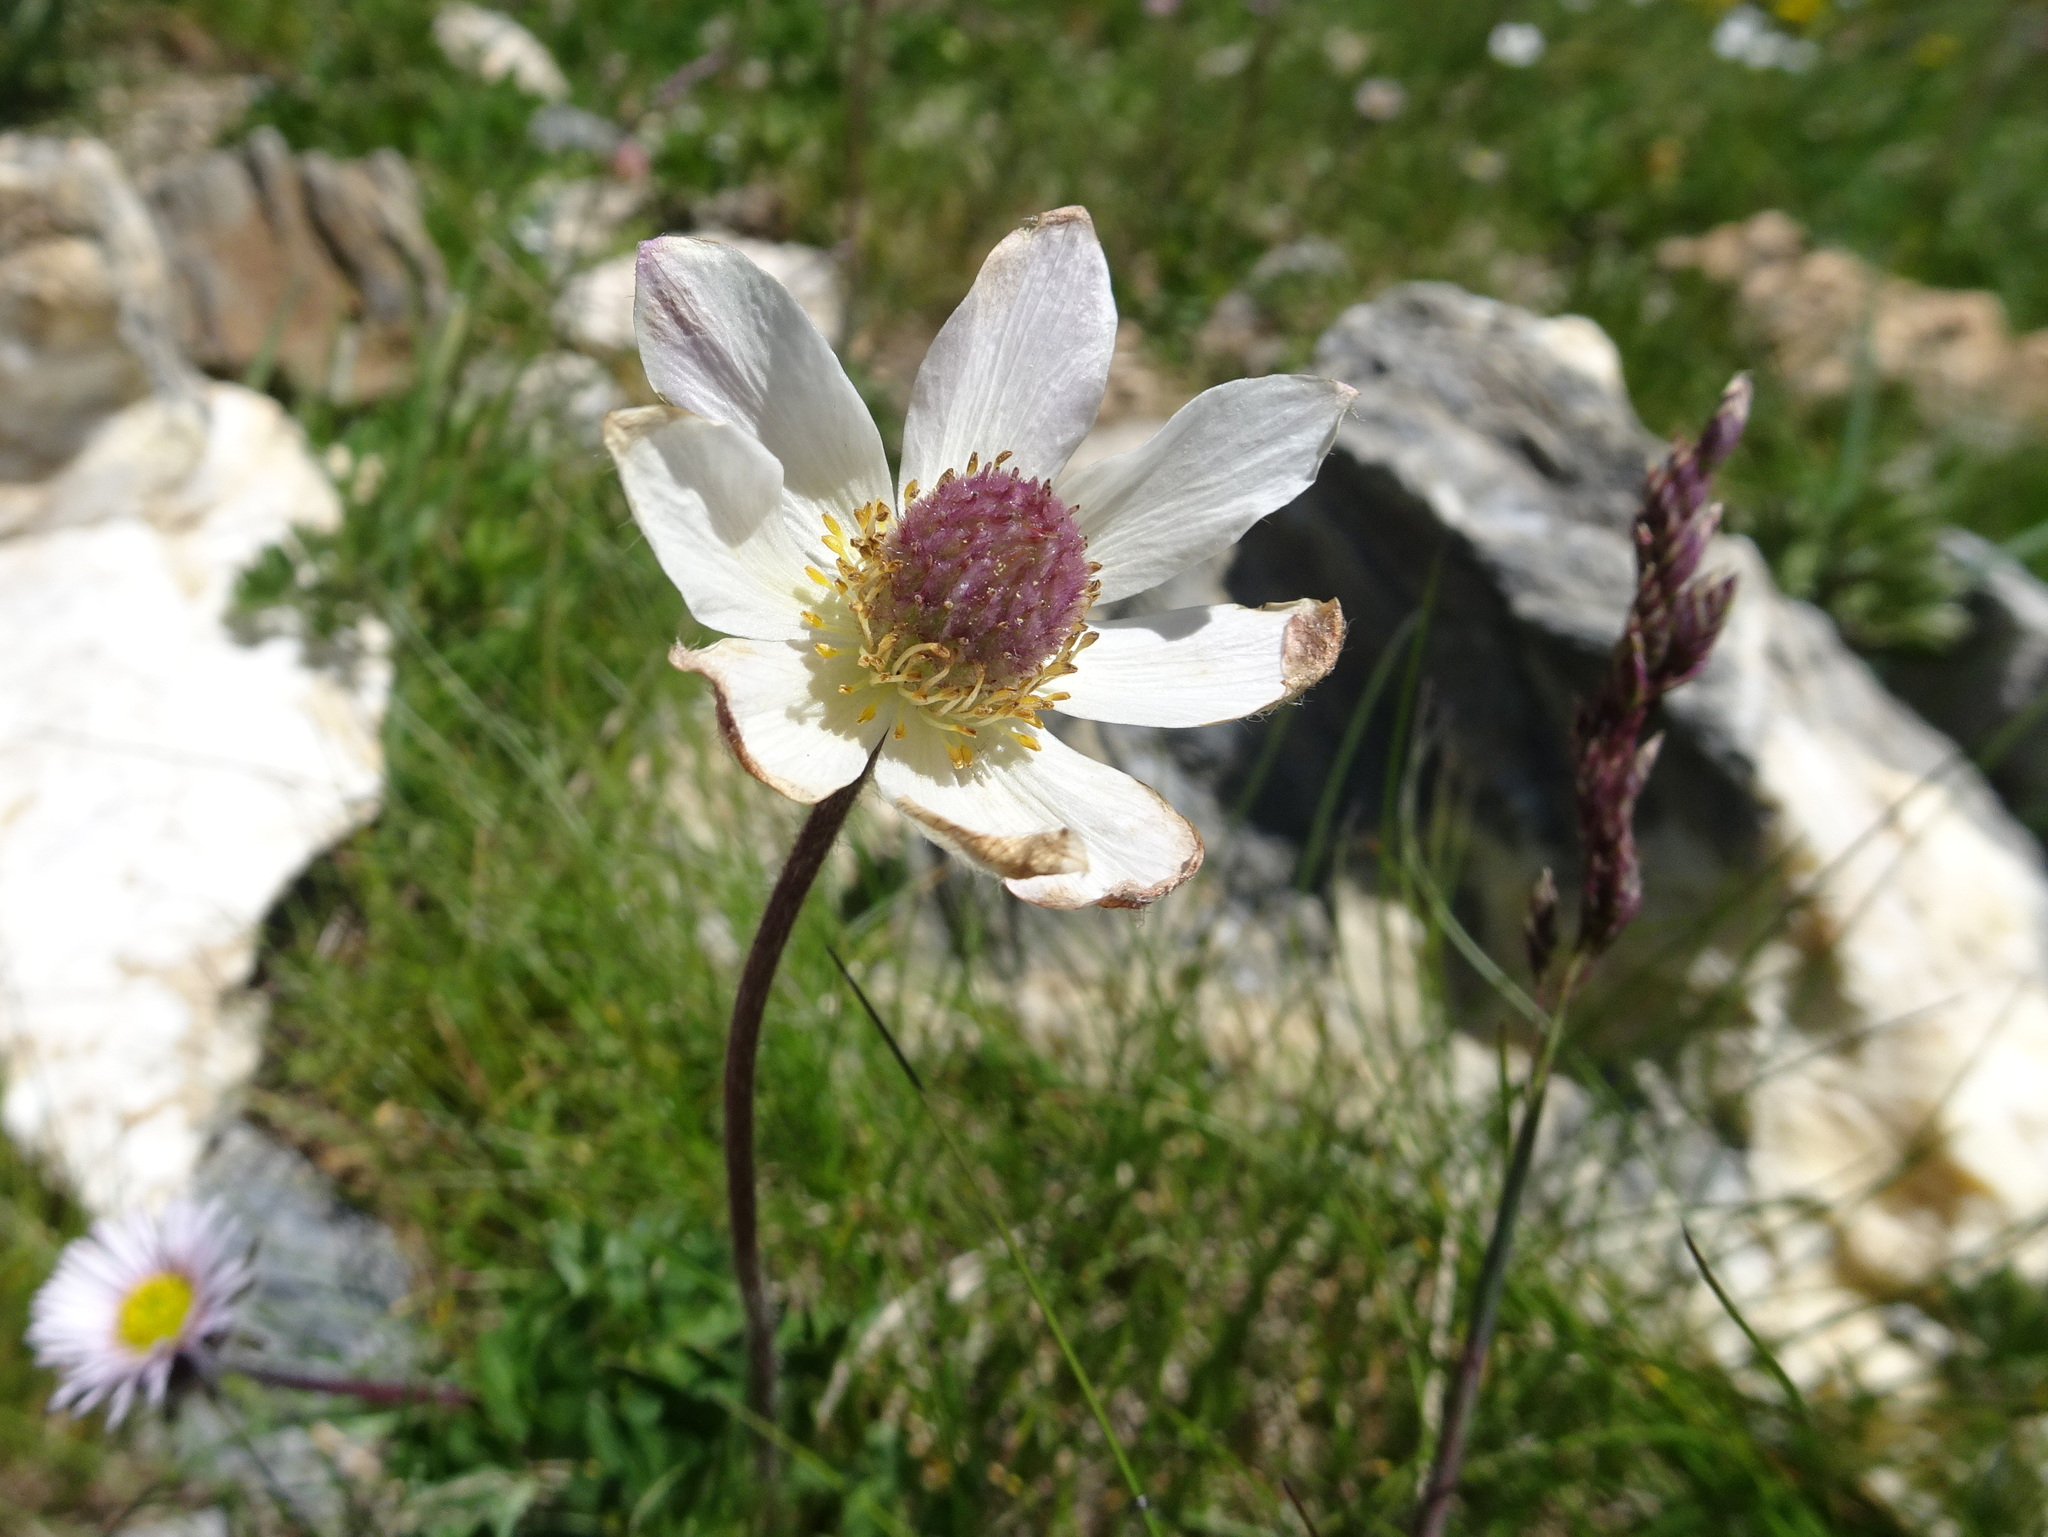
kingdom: Plantae
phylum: Tracheophyta
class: Magnoliopsida
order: Ranunculales
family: Ranunculaceae
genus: Anemone
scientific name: Anemone baldensis
